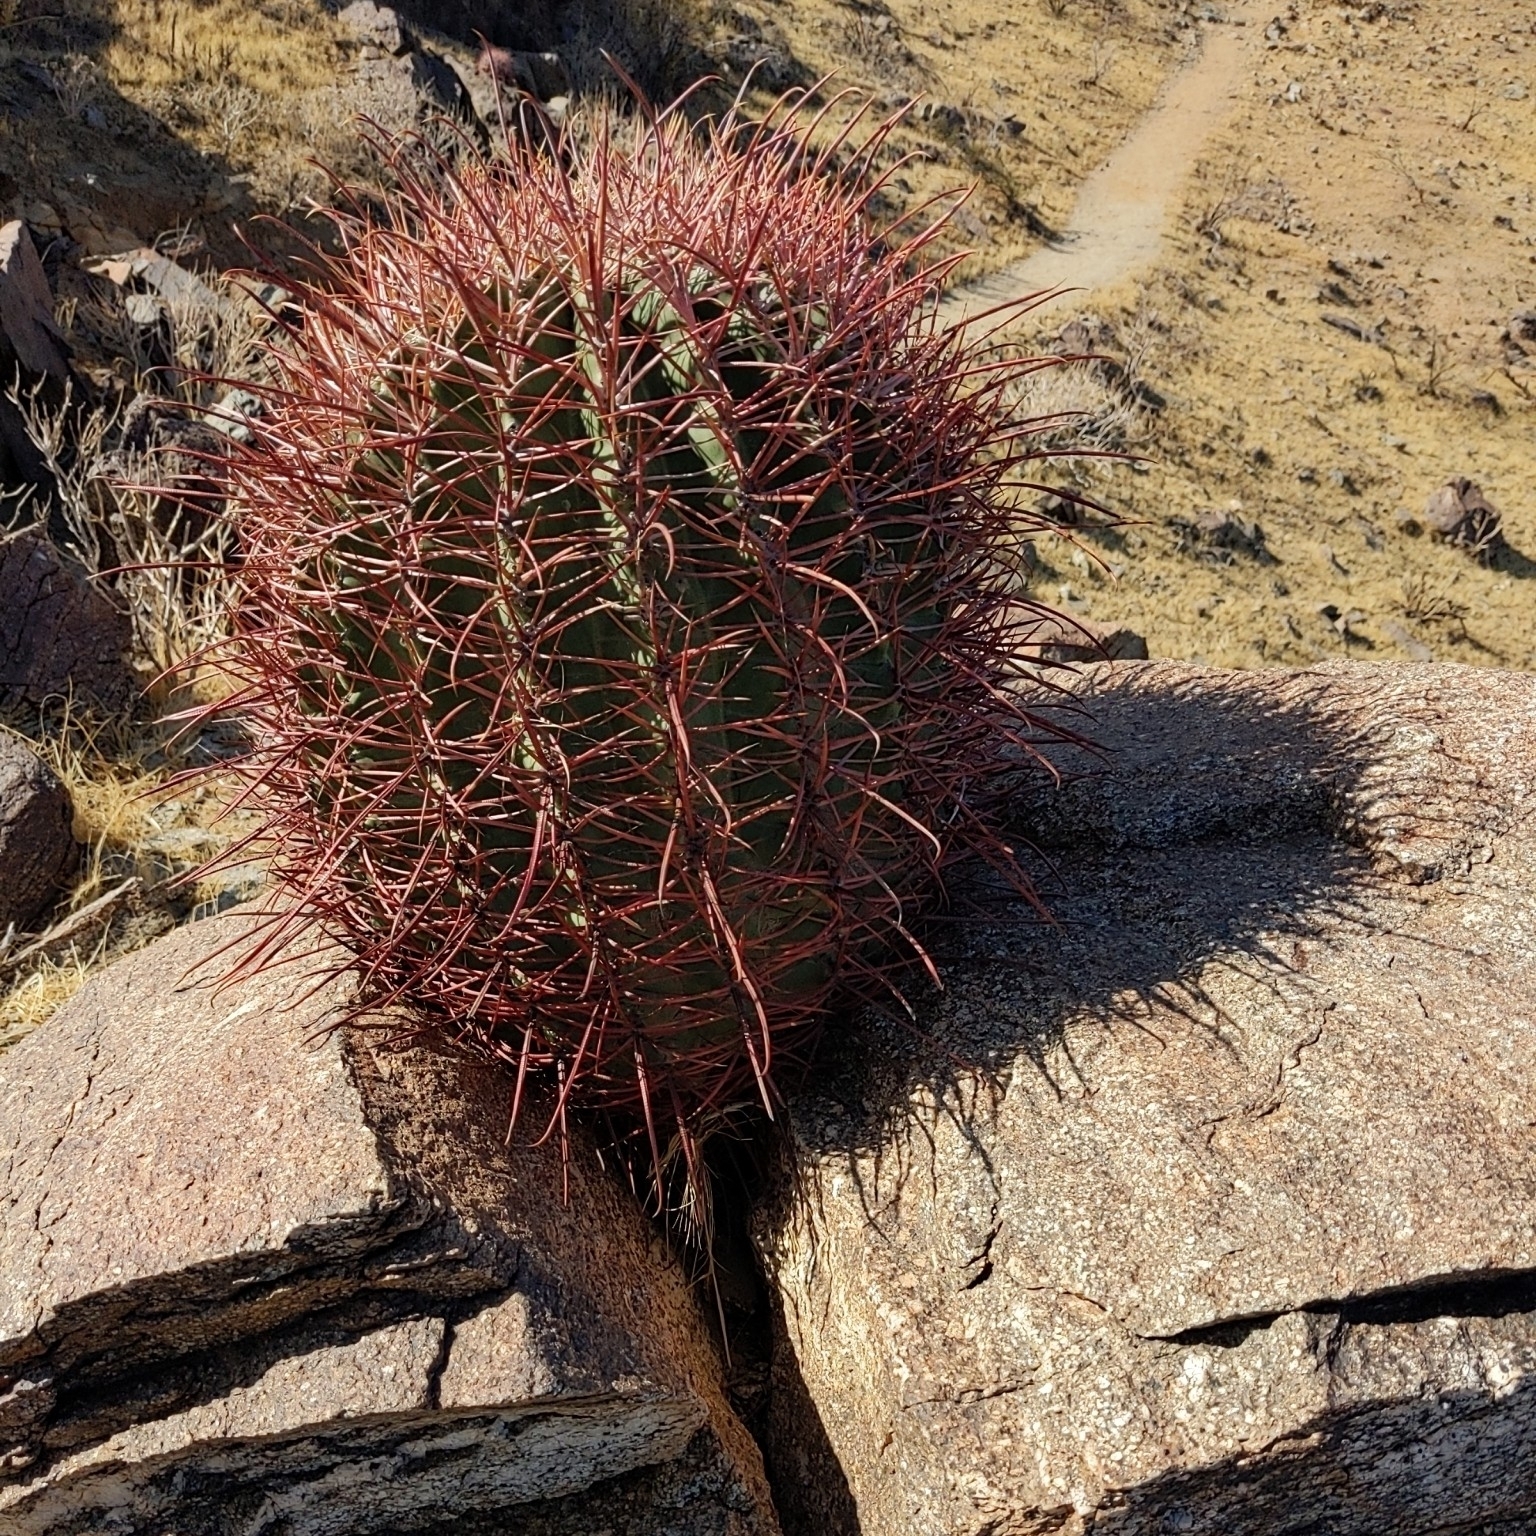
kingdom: Plantae
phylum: Tracheophyta
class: Magnoliopsida
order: Caryophyllales
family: Cactaceae
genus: Ferocactus
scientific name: Ferocactus cylindraceus
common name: California barrel cactus
